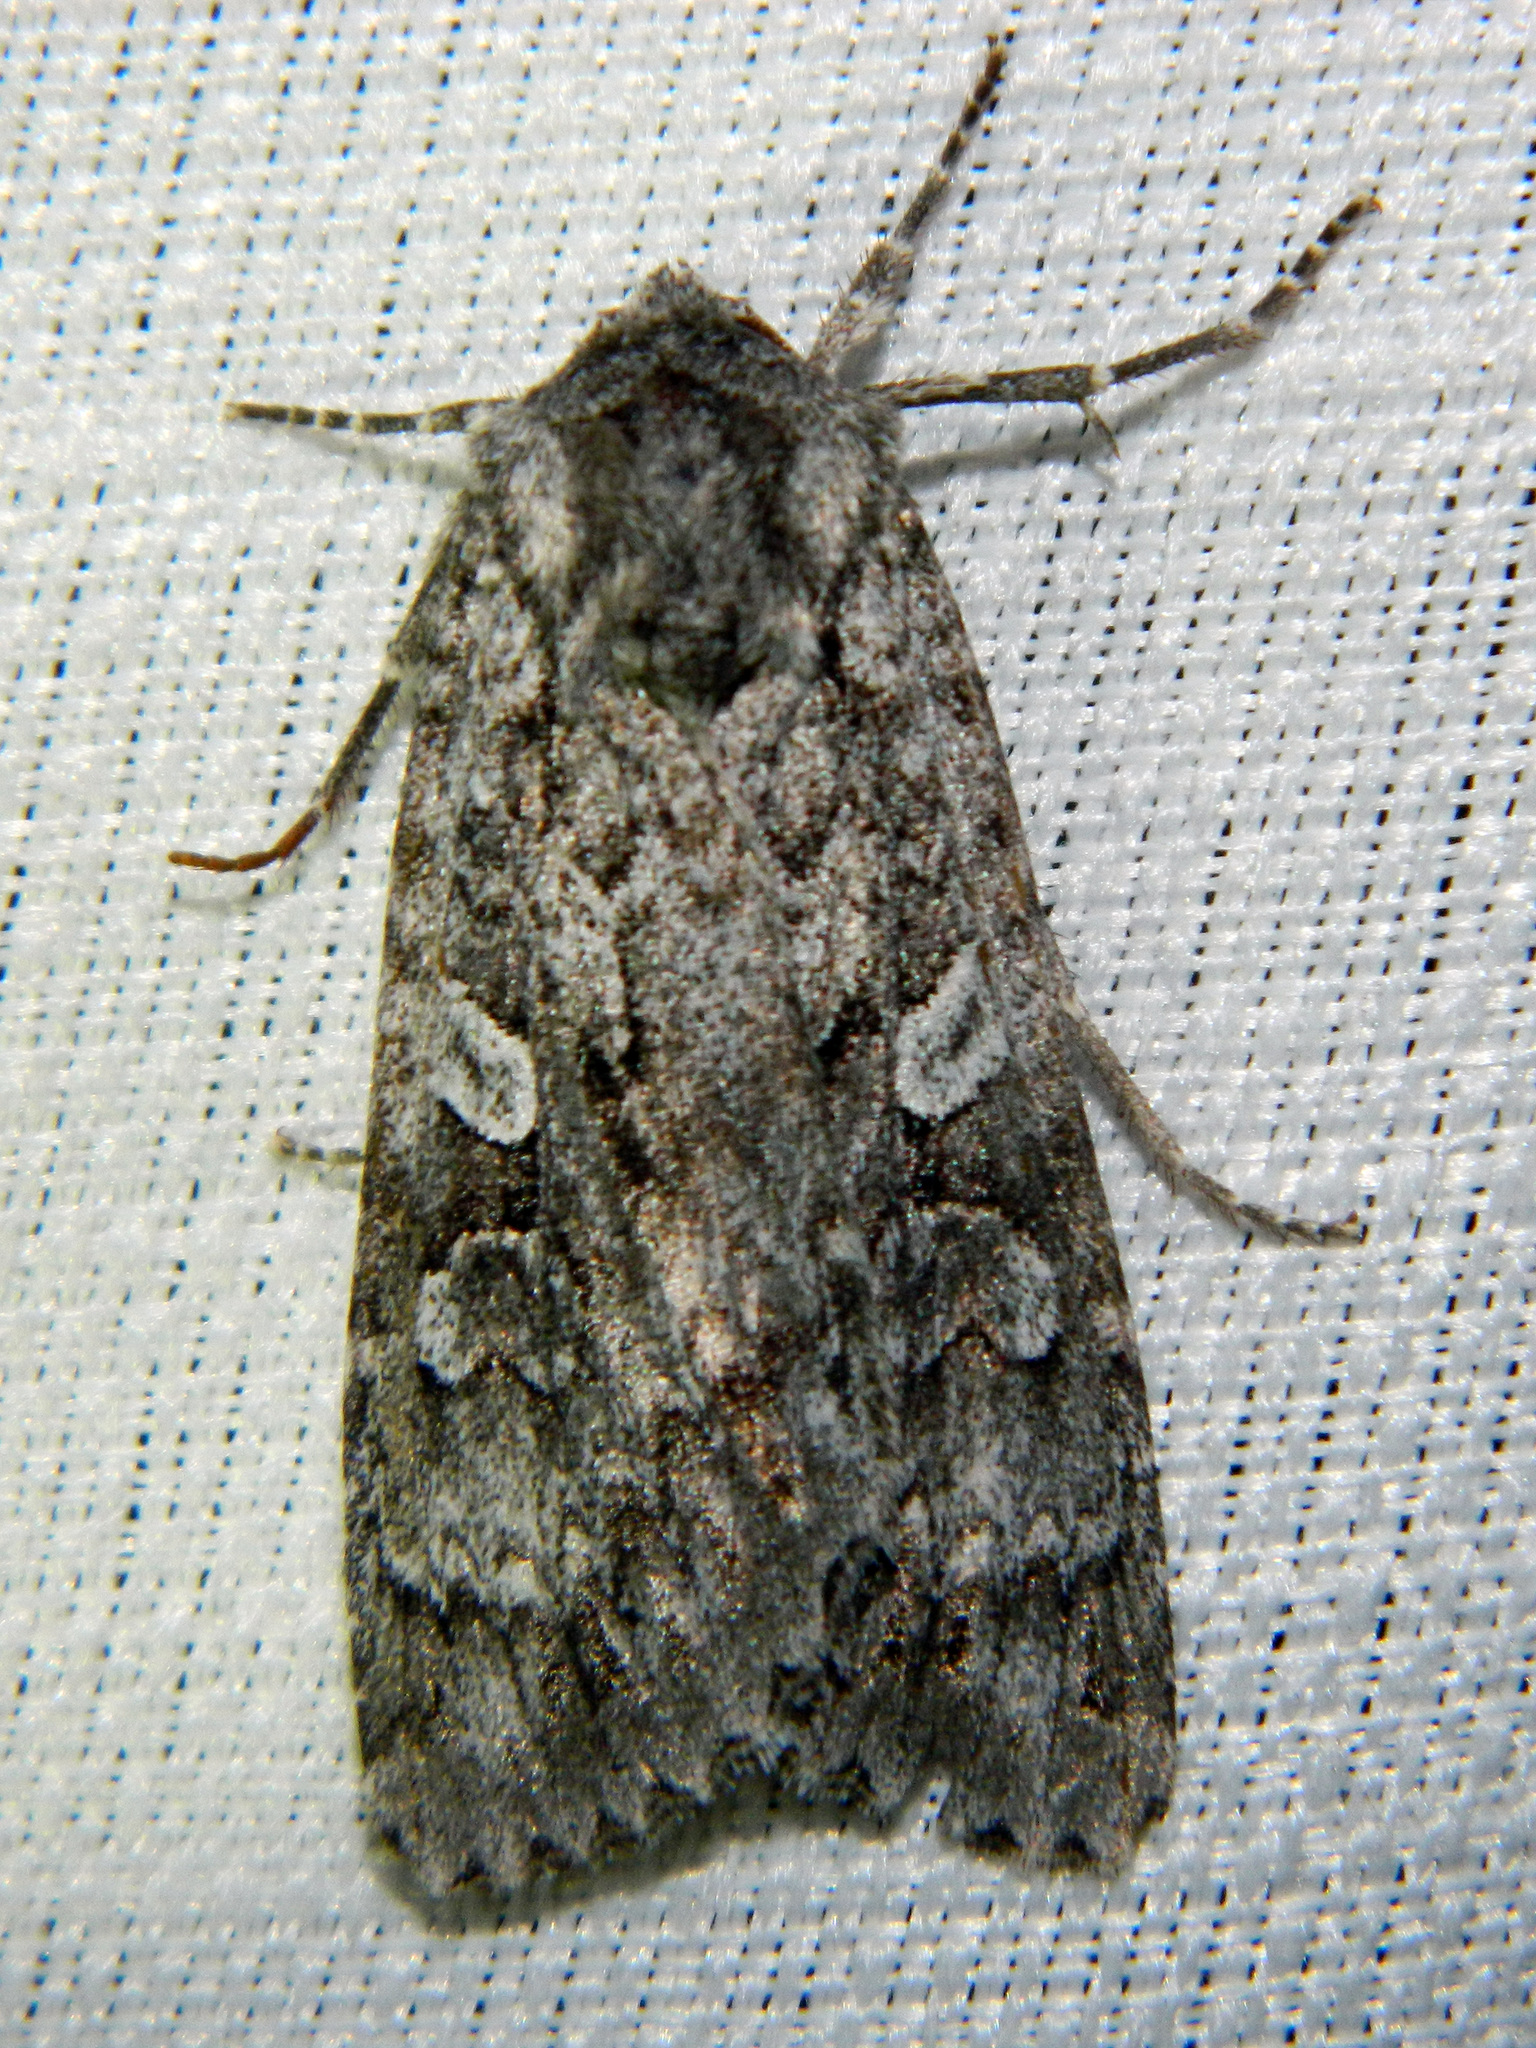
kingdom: Animalia
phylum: Arthropoda
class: Insecta
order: Lepidoptera
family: Noctuidae
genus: Eurois
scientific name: Eurois occulta
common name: Great brocade
